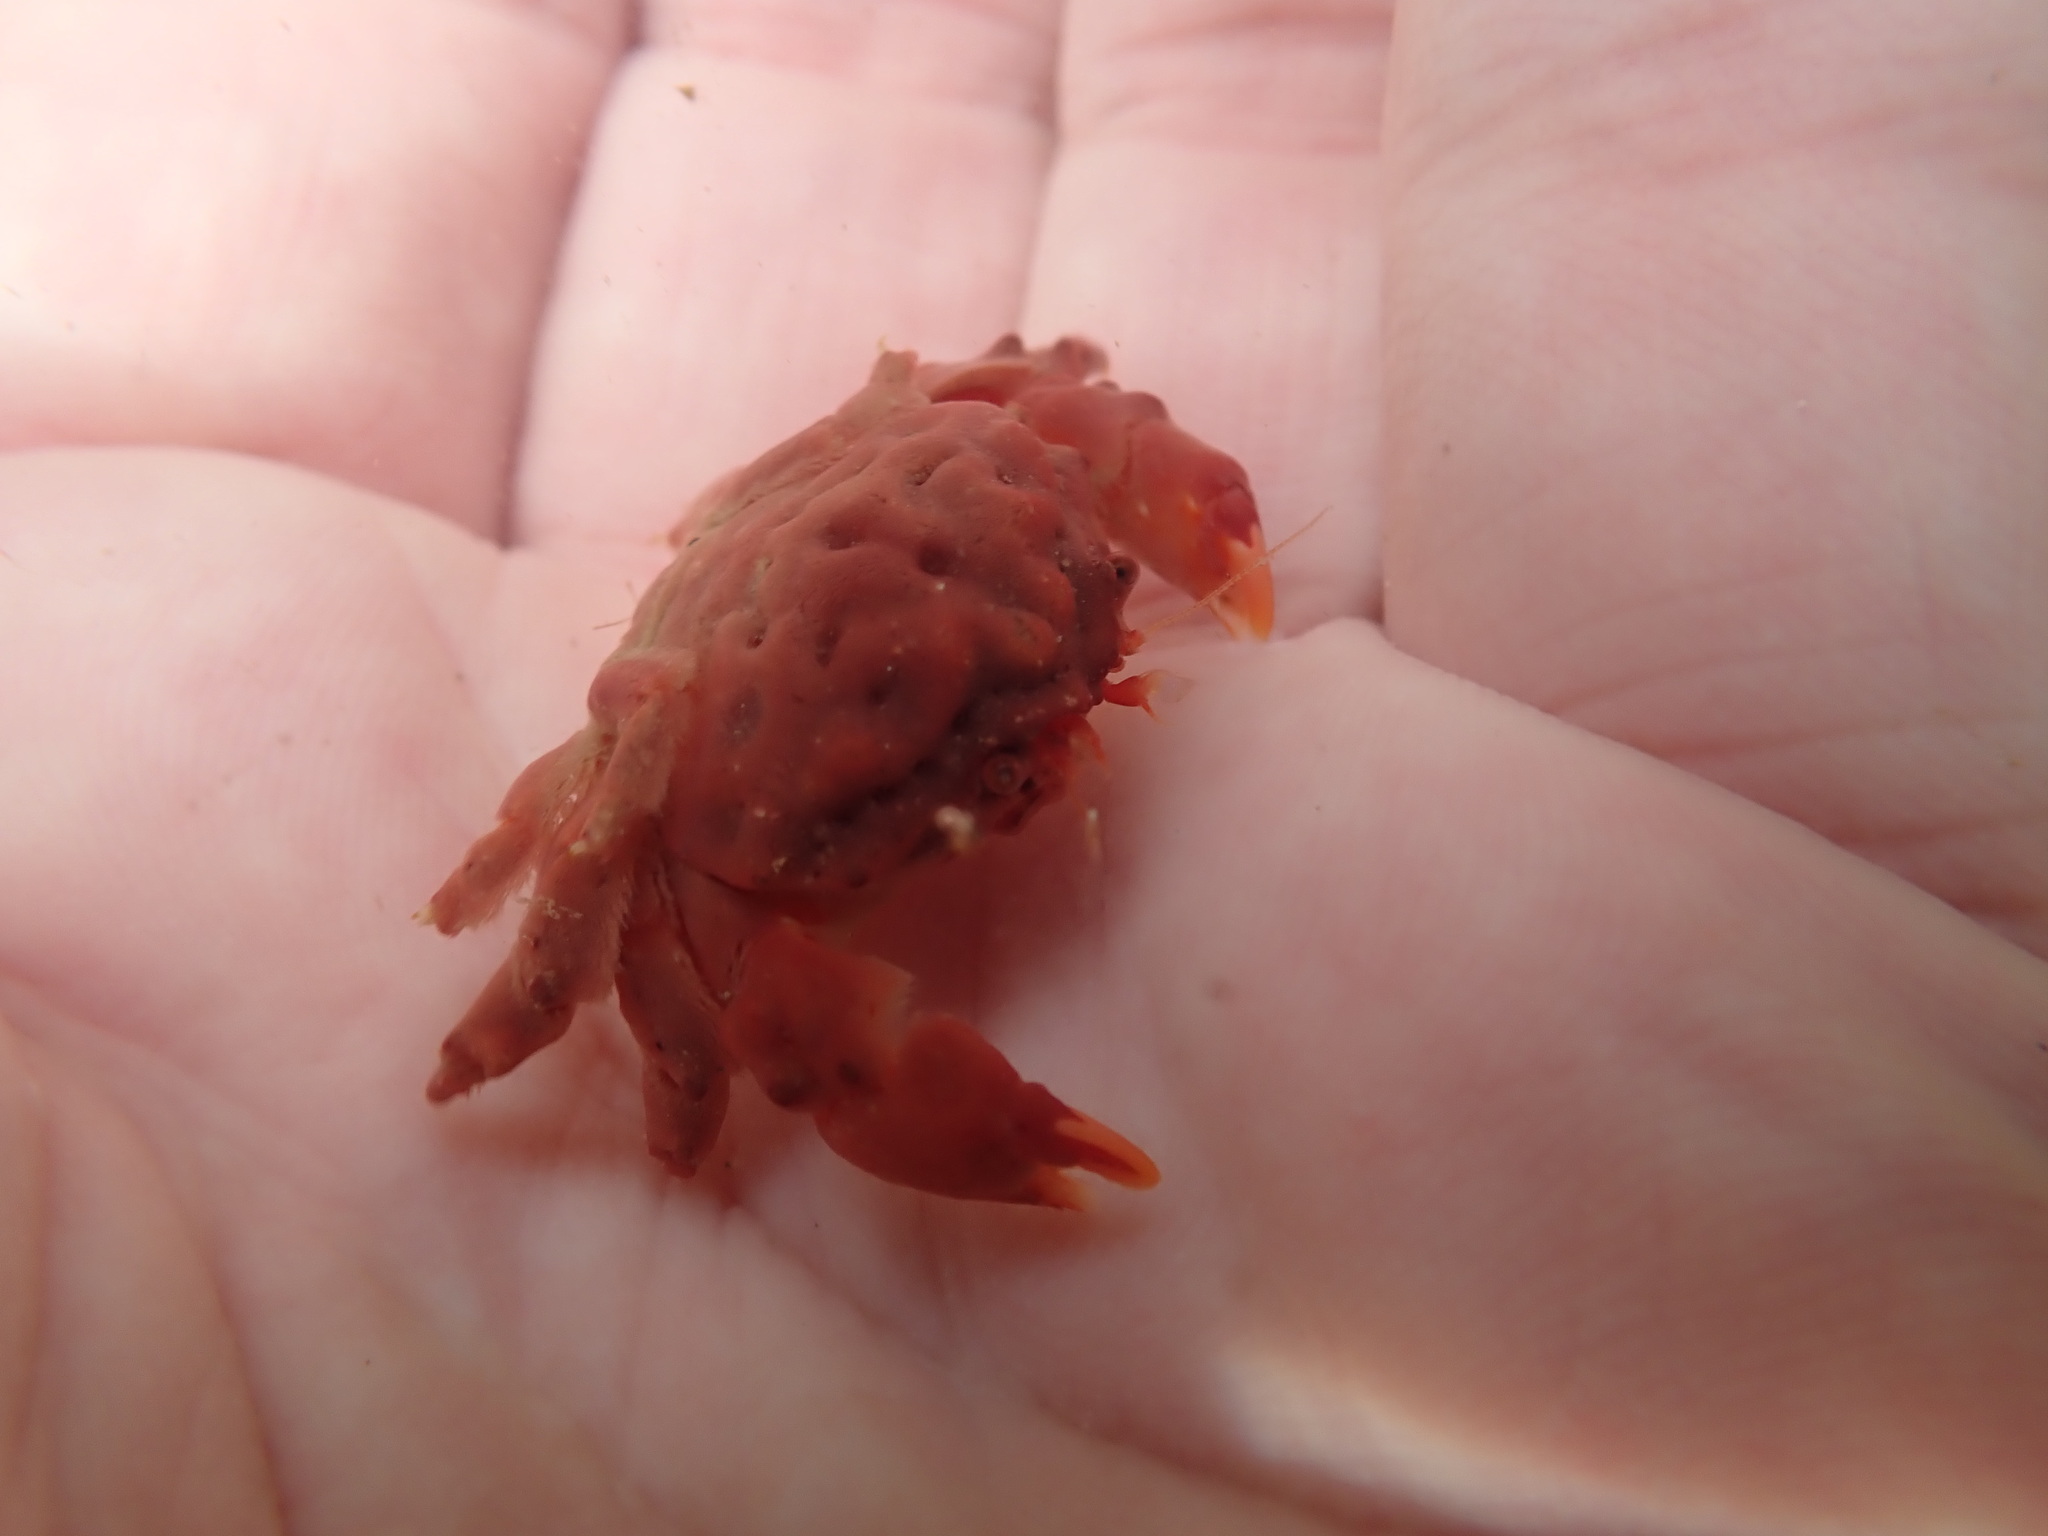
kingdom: Animalia
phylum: Arthropoda
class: Malacostraca
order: Decapoda
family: Dromiidae
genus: Metadromia
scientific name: Metadromia wilsoni
